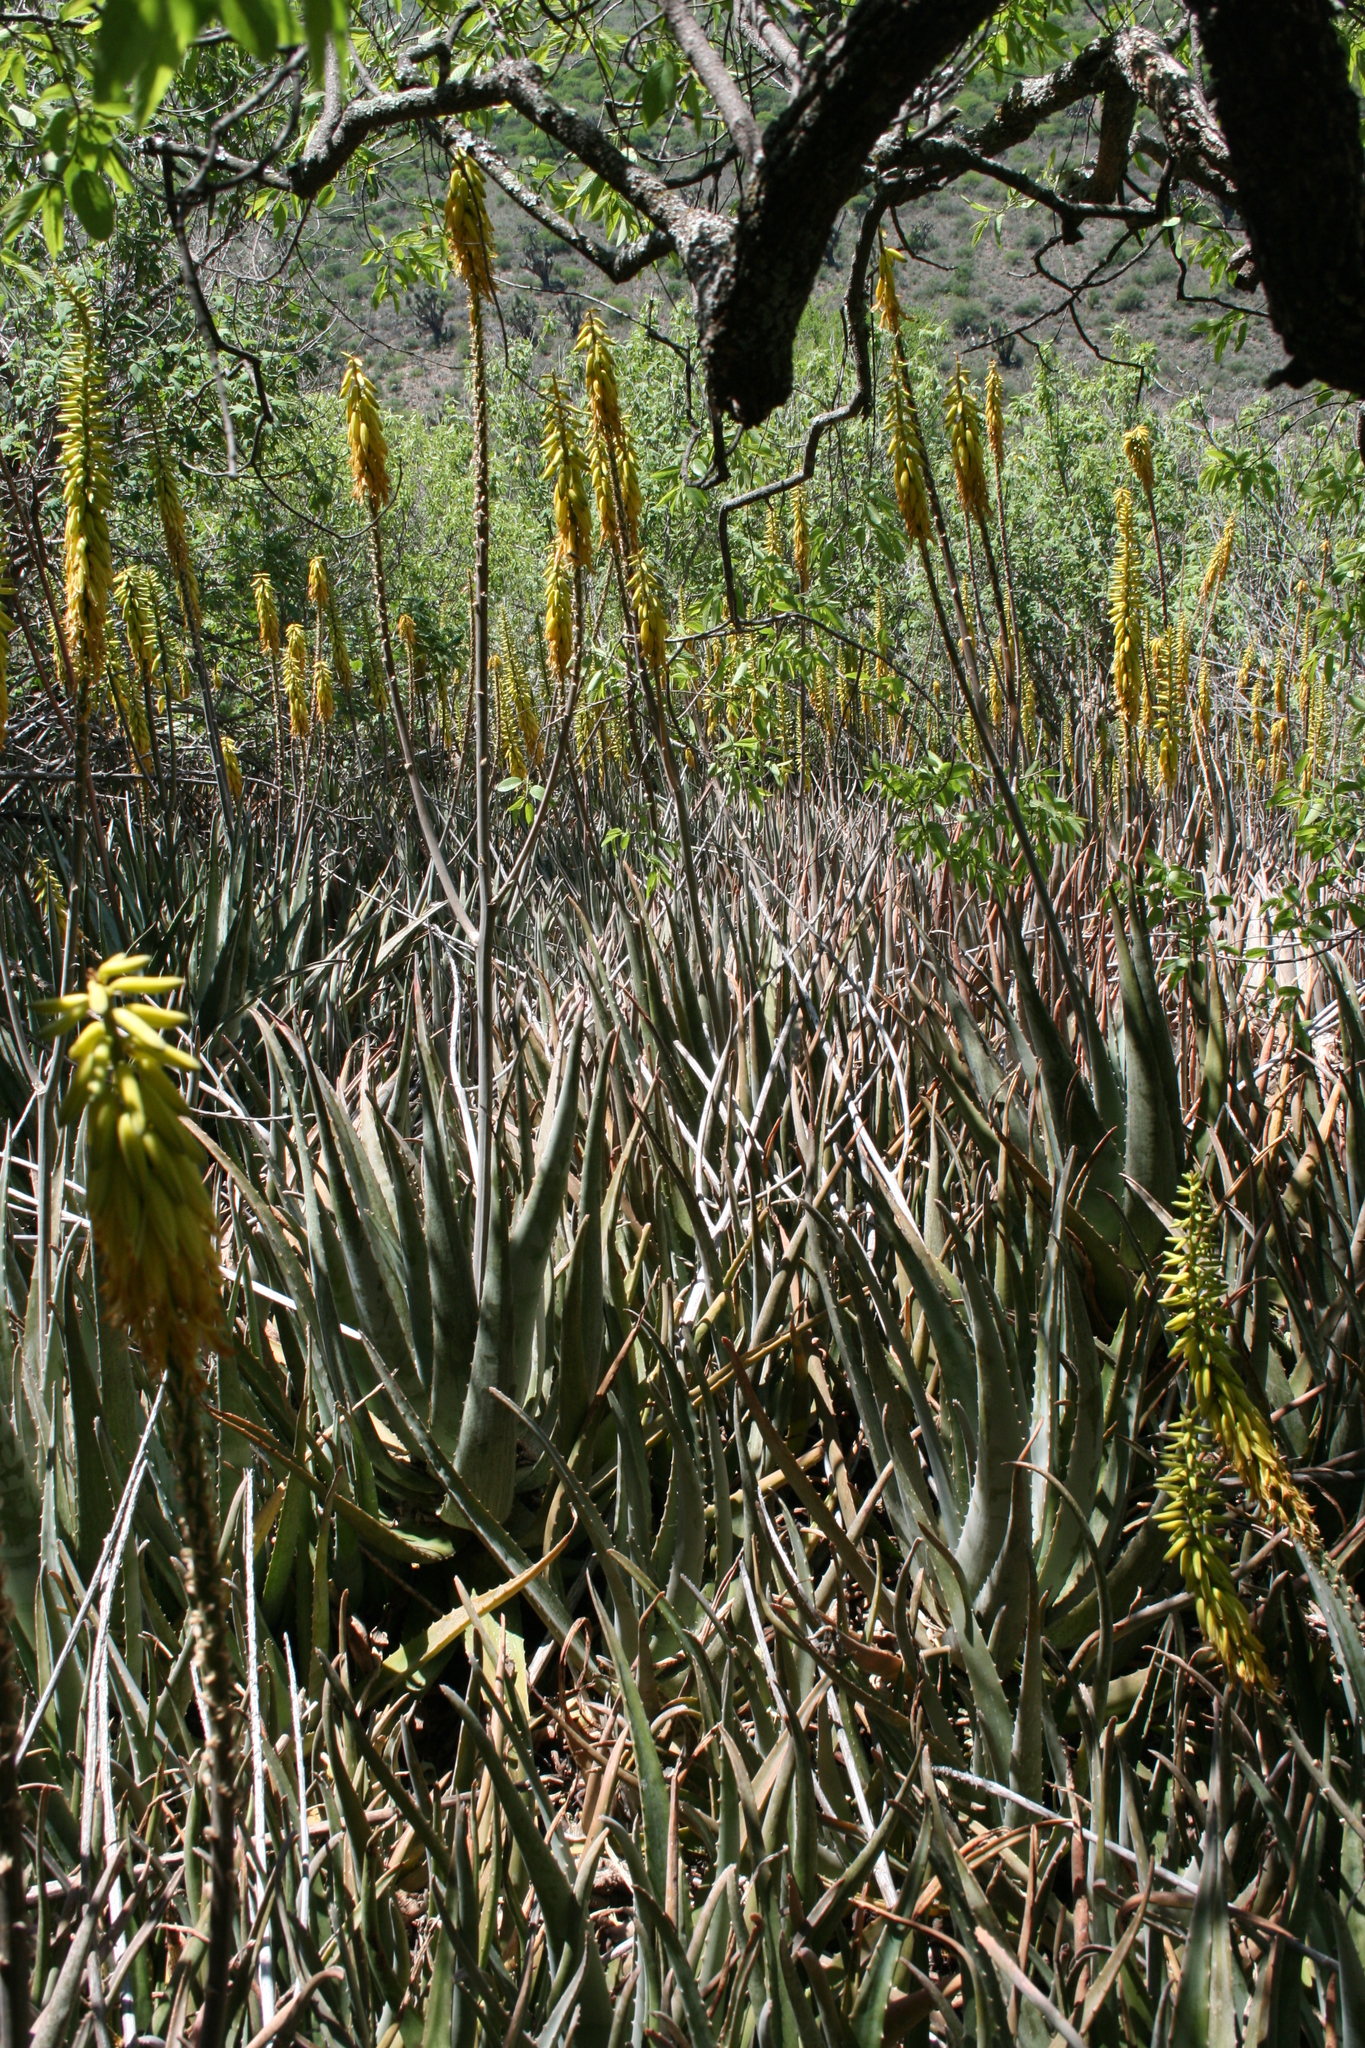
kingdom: Plantae
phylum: Tracheophyta
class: Liliopsida
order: Asparagales
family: Asphodelaceae
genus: Aloe
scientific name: Aloe vera
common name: Barbados aloe
